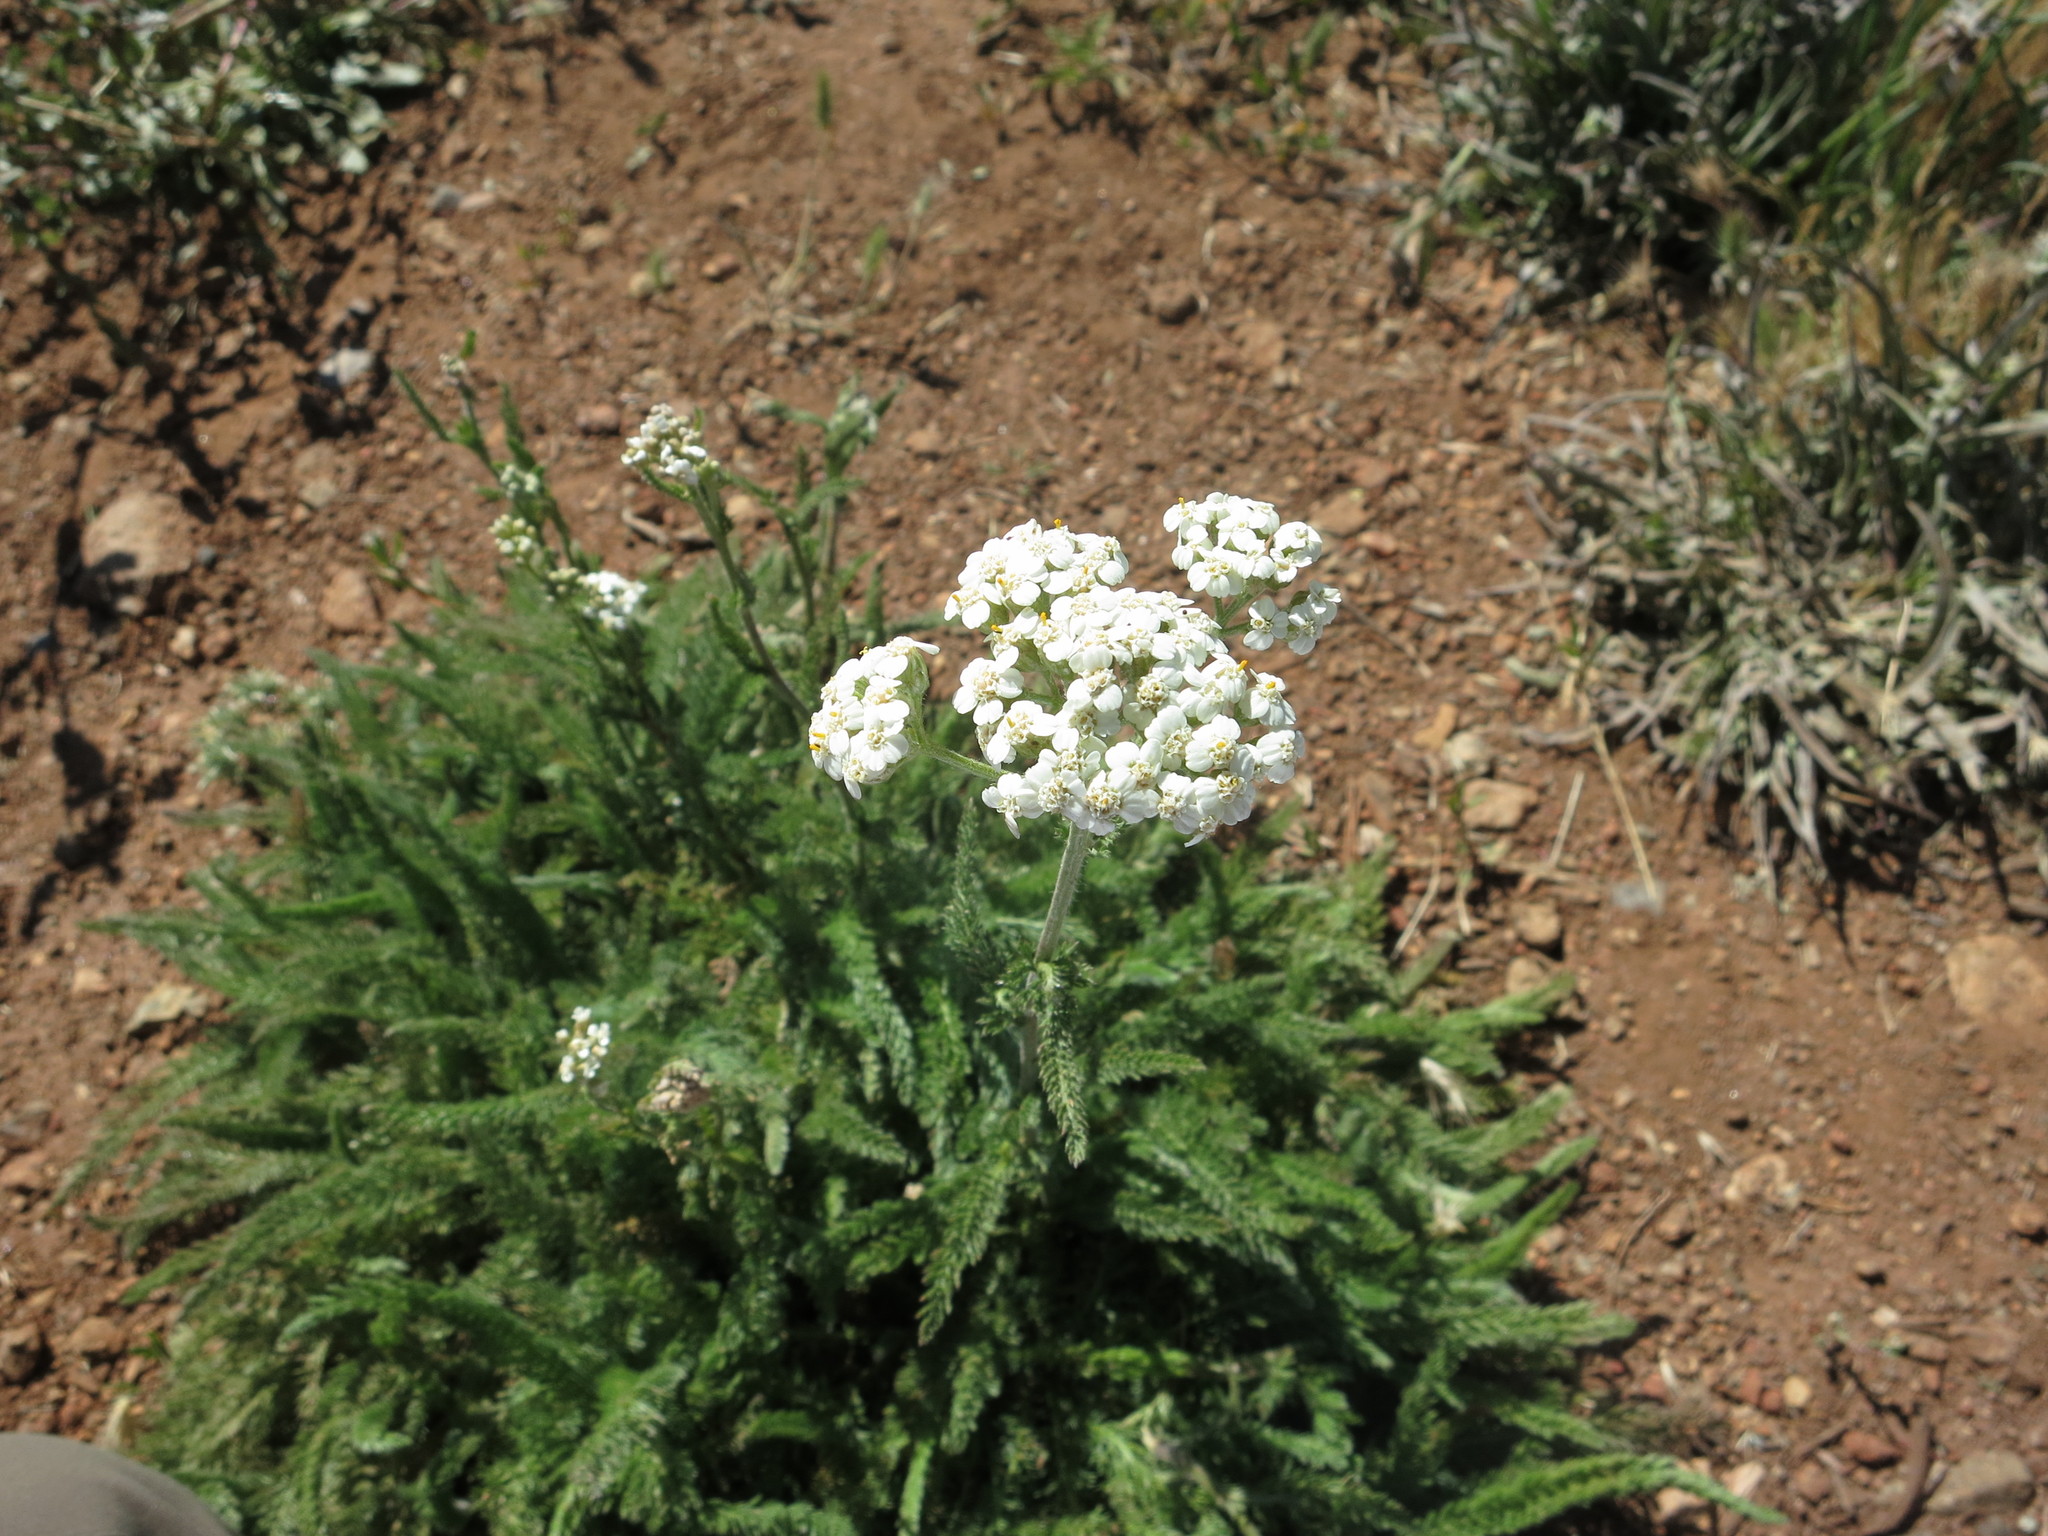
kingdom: Plantae
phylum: Tracheophyta
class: Magnoliopsida
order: Asterales
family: Asteraceae
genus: Achillea
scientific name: Achillea millefolium
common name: Yarrow
